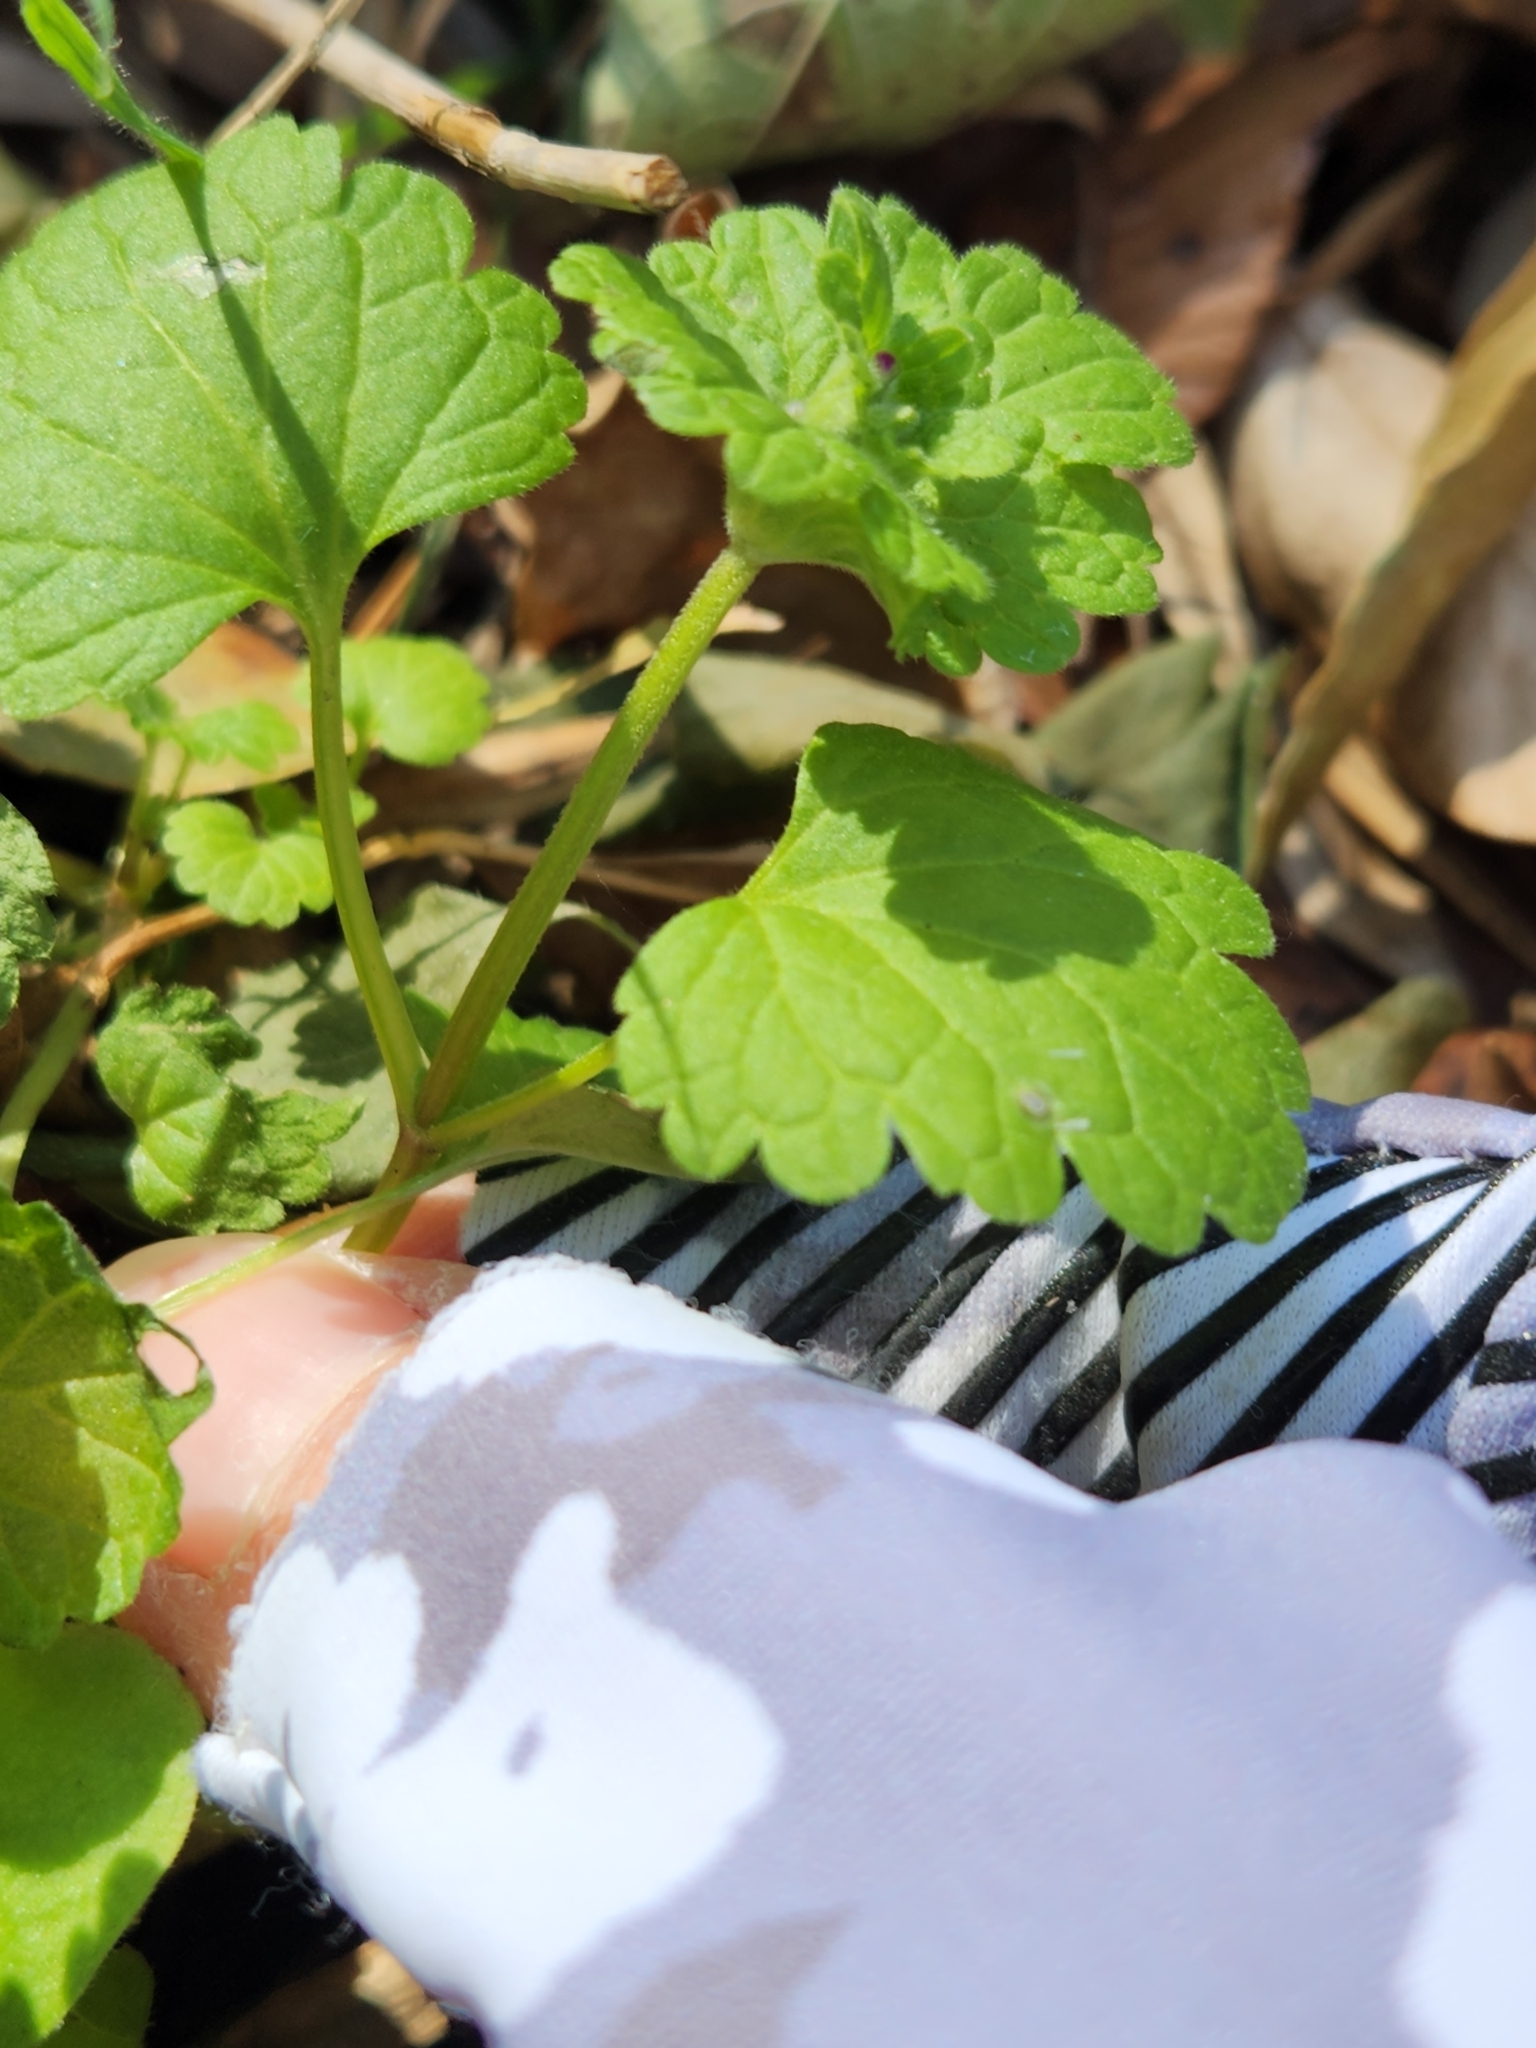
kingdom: Plantae
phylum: Tracheophyta
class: Magnoliopsida
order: Lamiales
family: Lamiaceae
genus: Lamium
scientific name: Lamium amplexicaule
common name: Henbit dead-nettle
